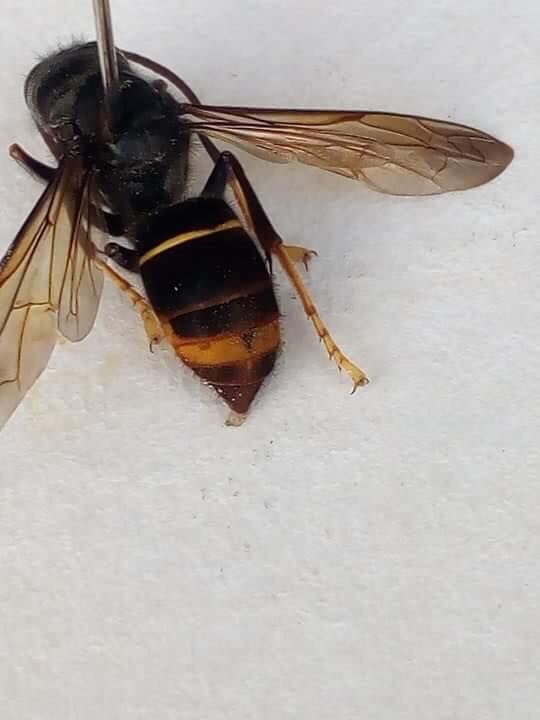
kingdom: Animalia
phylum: Arthropoda
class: Insecta
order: Hymenoptera
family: Vespidae
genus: Vespa
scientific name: Vespa velutina
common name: Asian hornet
